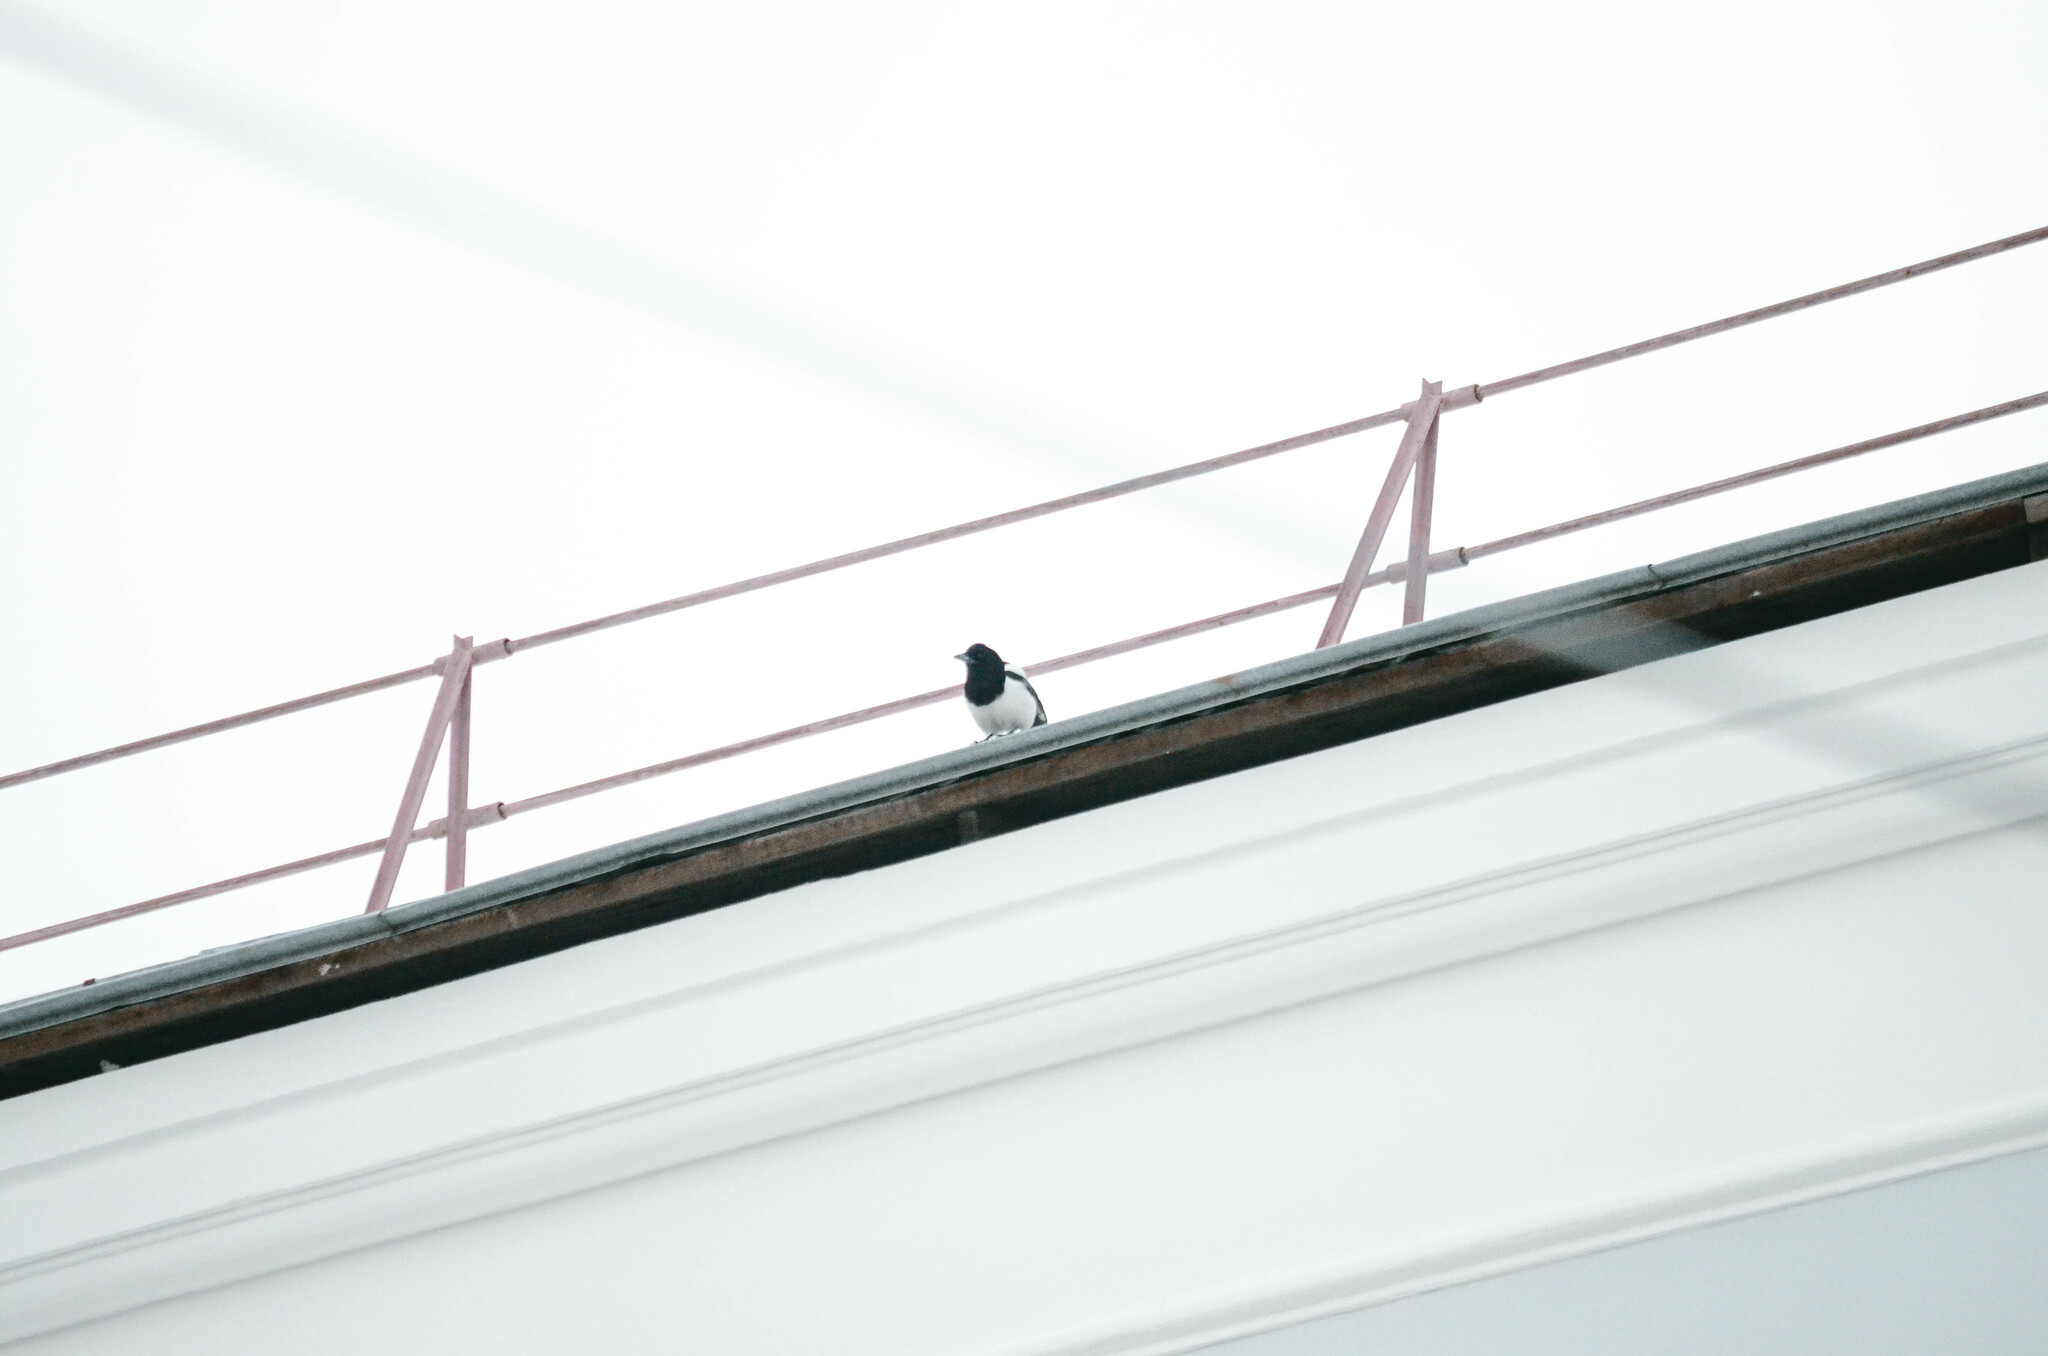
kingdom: Animalia
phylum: Chordata
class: Aves
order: Passeriformes
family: Corvidae
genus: Pica
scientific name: Pica pica
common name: Eurasian magpie
